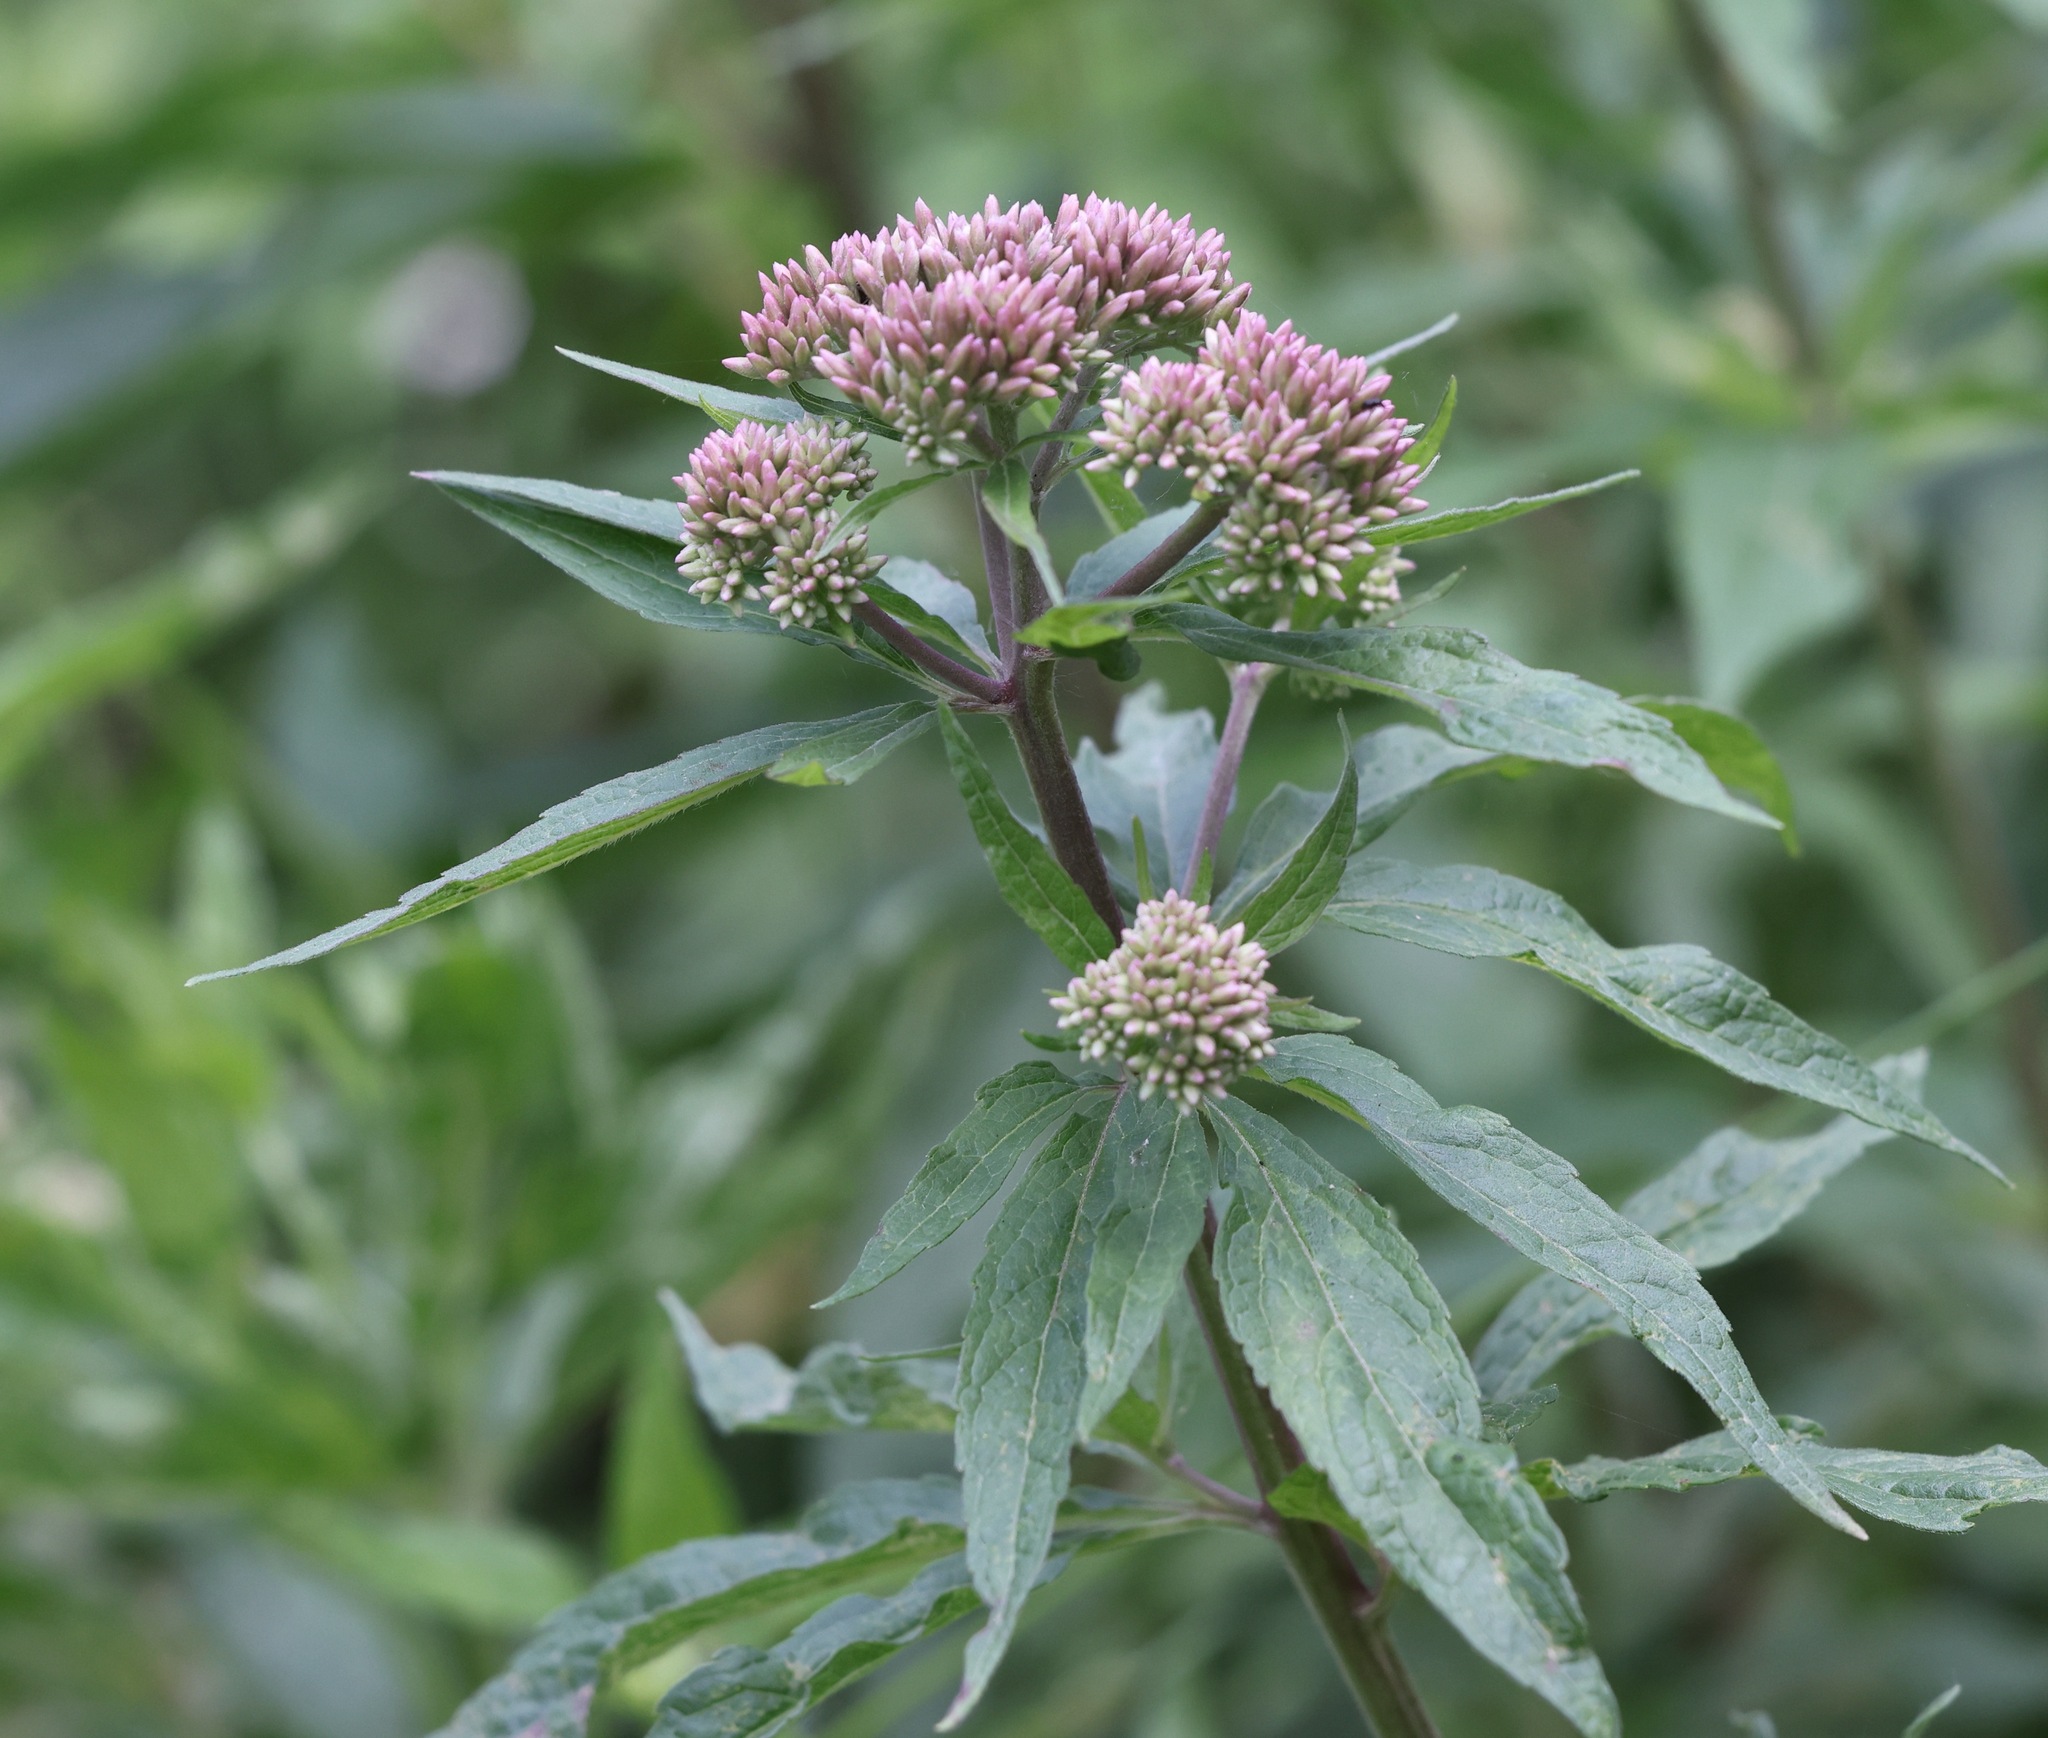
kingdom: Plantae
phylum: Tracheophyta
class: Magnoliopsida
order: Asterales
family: Asteraceae
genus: Eupatorium
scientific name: Eupatorium cannabinum
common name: Hemp-agrimony
